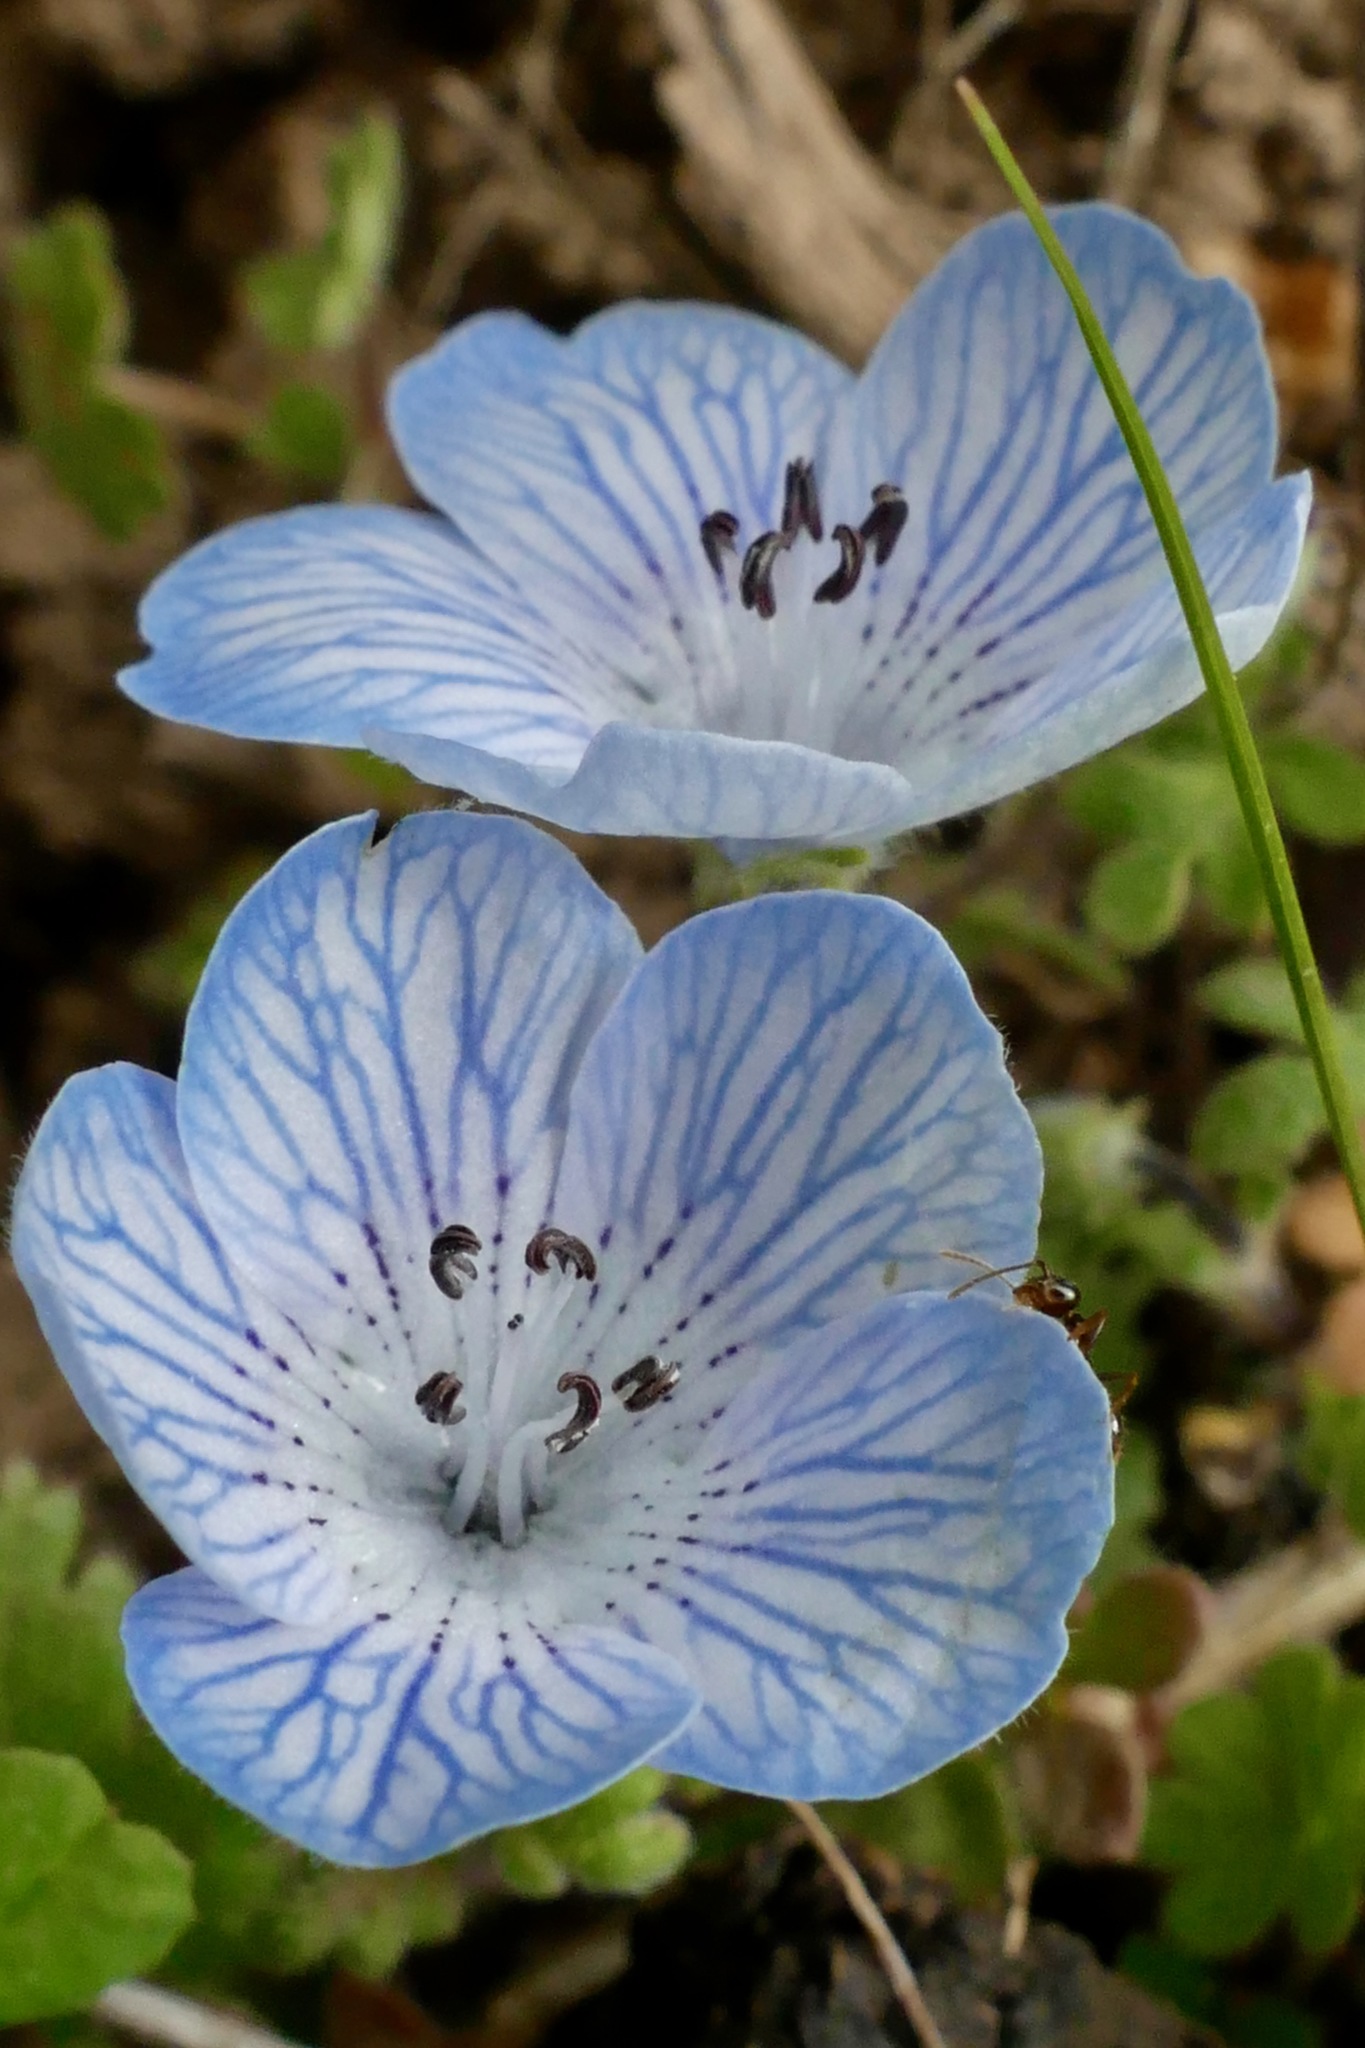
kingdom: Plantae
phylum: Tracheophyta
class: Magnoliopsida
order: Boraginales
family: Hydrophyllaceae
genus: Nemophila
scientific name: Nemophila menziesii
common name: Baby's-blue-eyes
